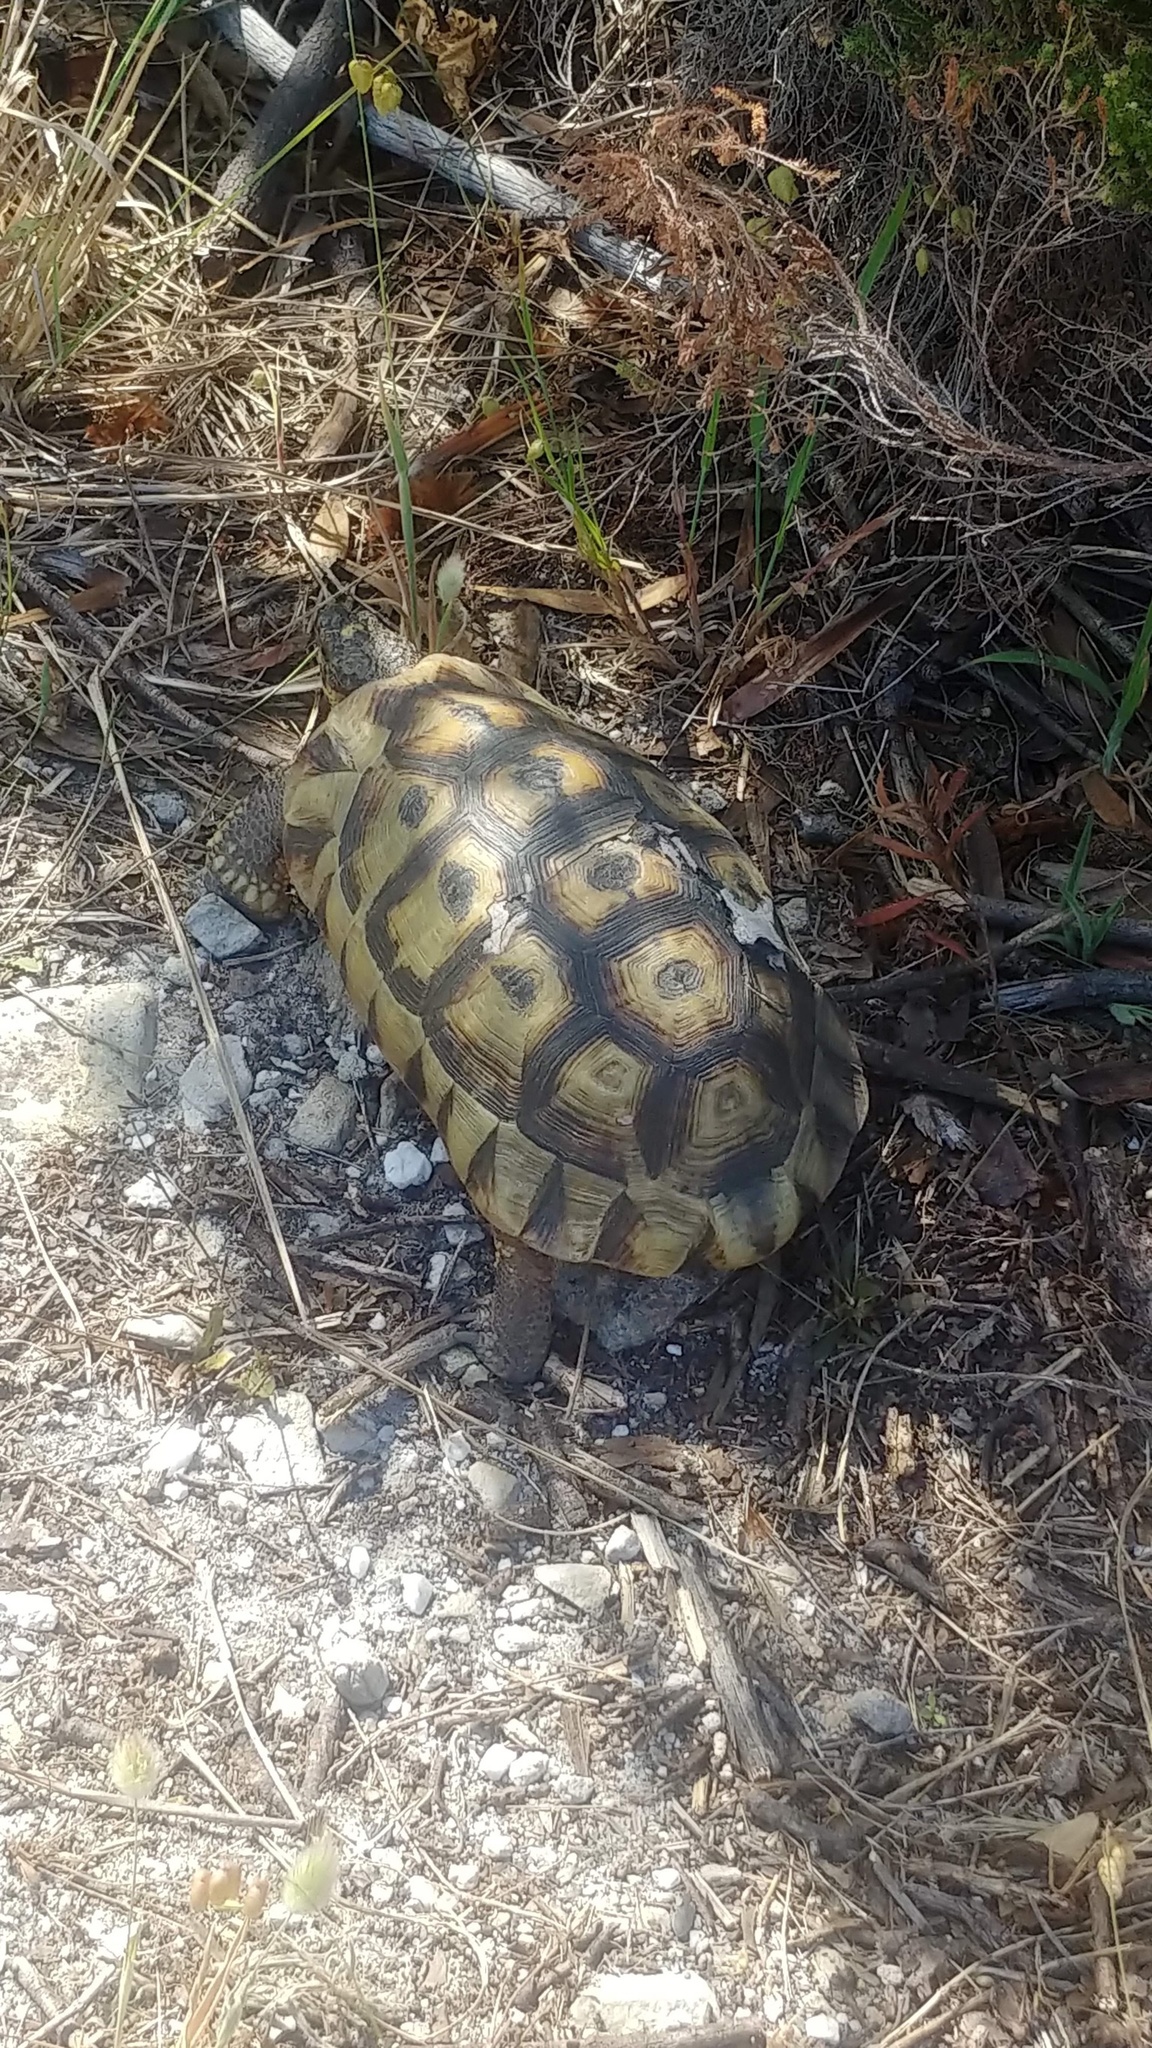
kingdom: Animalia
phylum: Chordata
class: Testudines
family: Testudinidae
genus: Chersina
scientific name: Chersina angulata
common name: South african bowsprit tortoise
